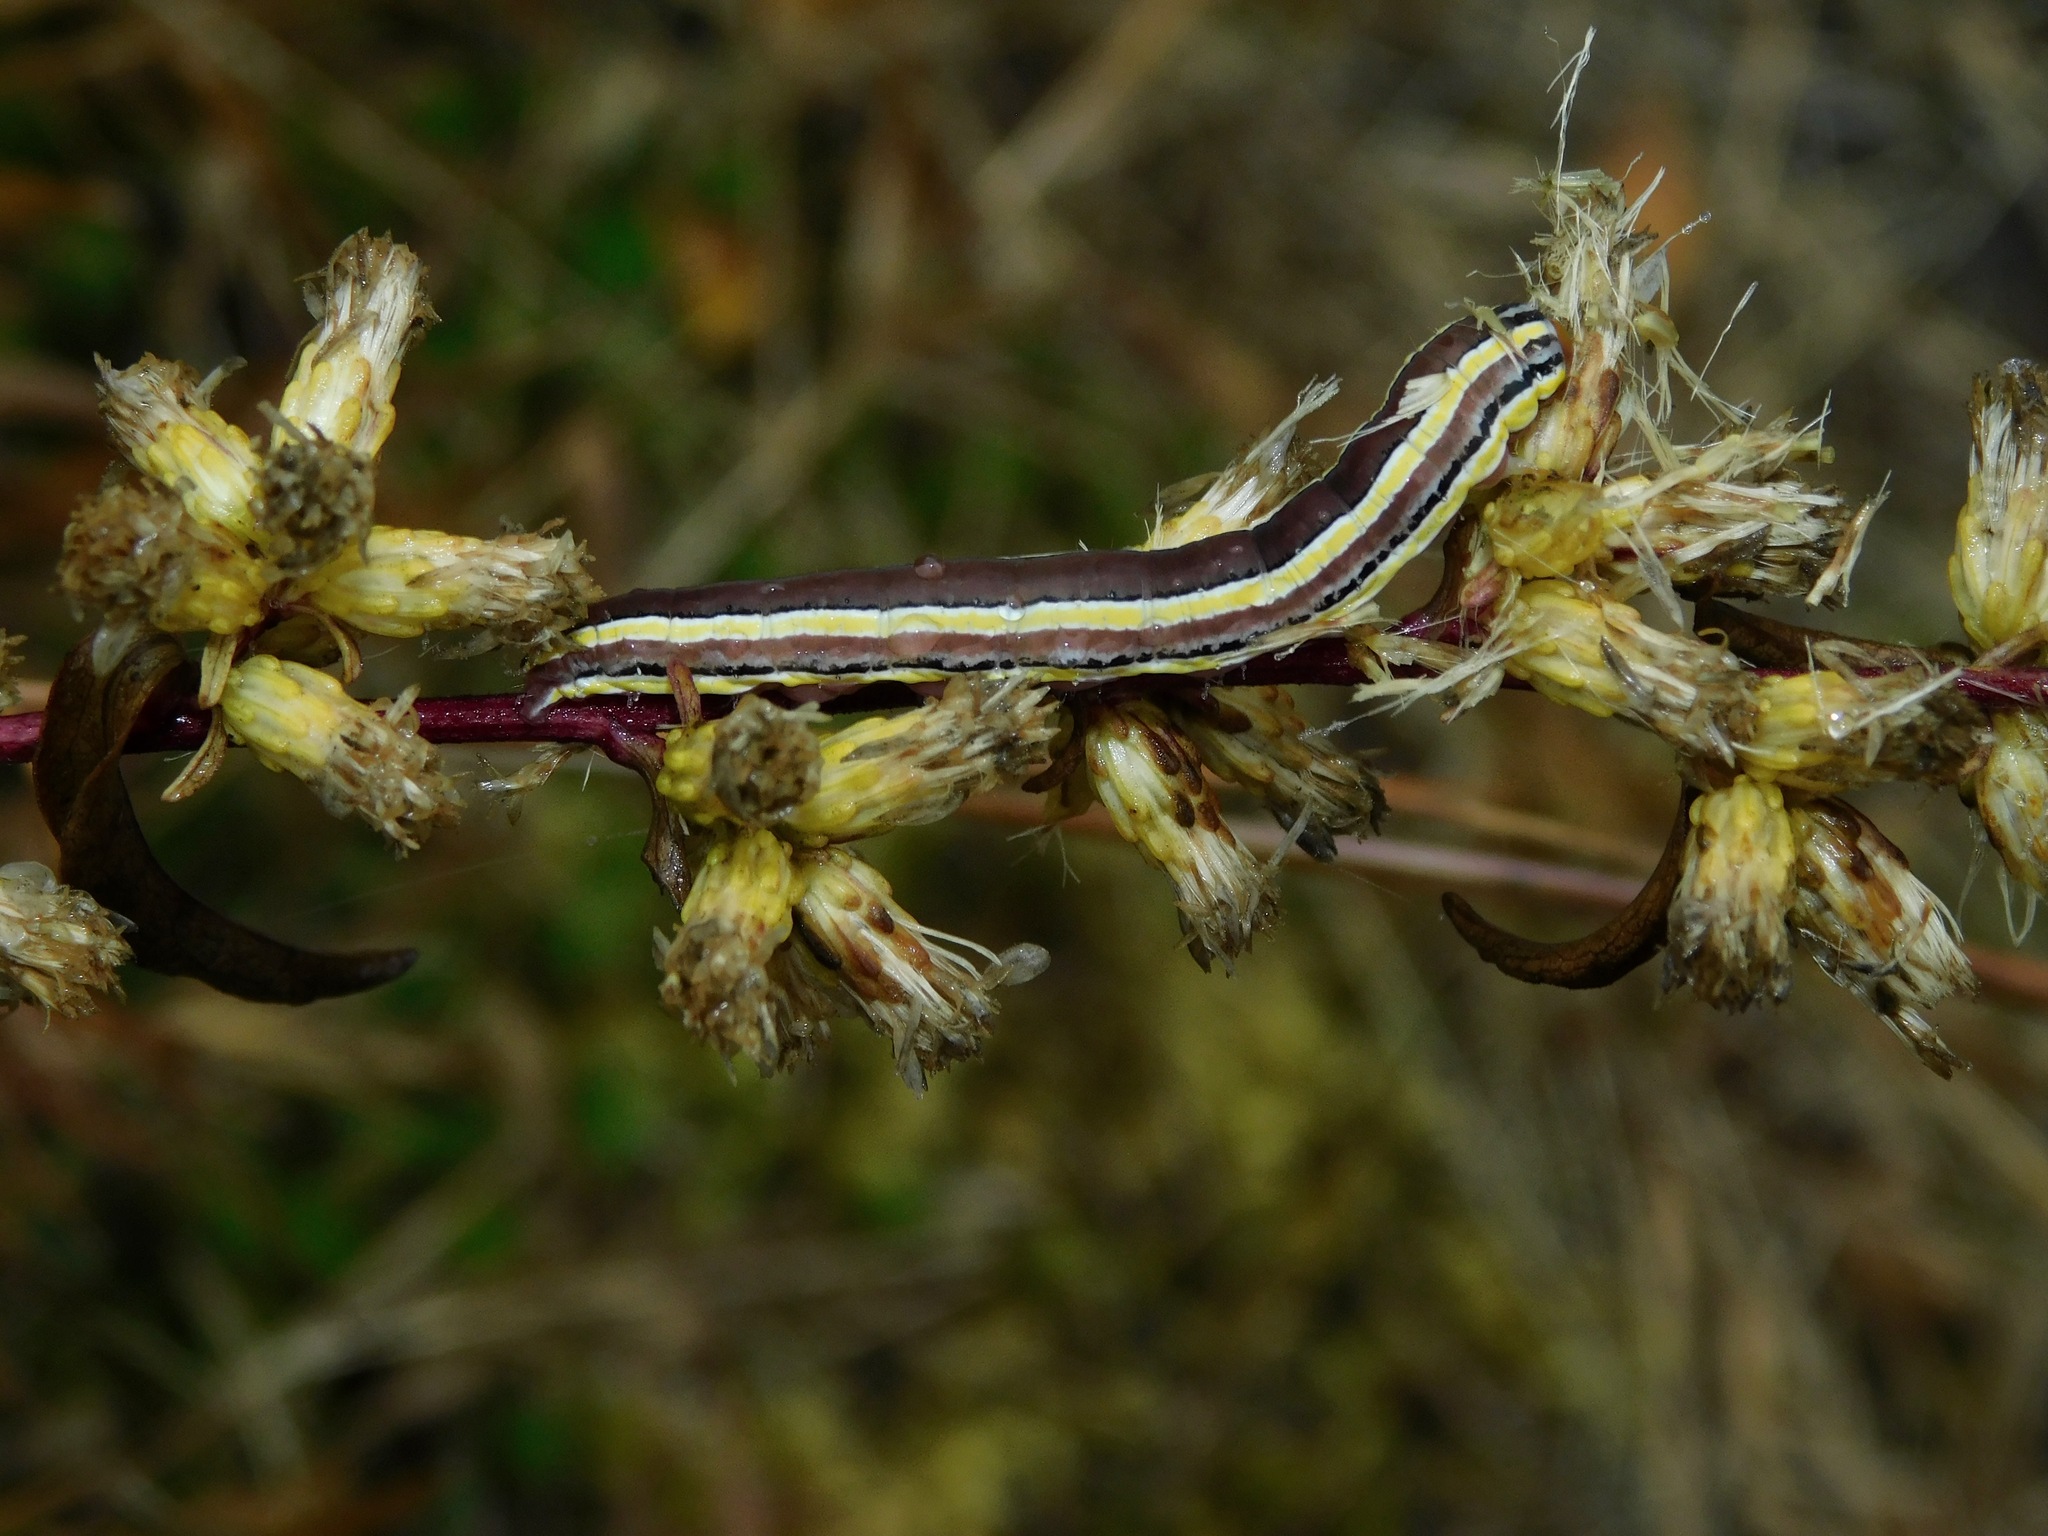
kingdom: Animalia
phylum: Arthropoda
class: Insecta
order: Lepidoptera
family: Noctuidae
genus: Trichordestra
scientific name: Trichordestra legitima
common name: Striped garden caterpillar
